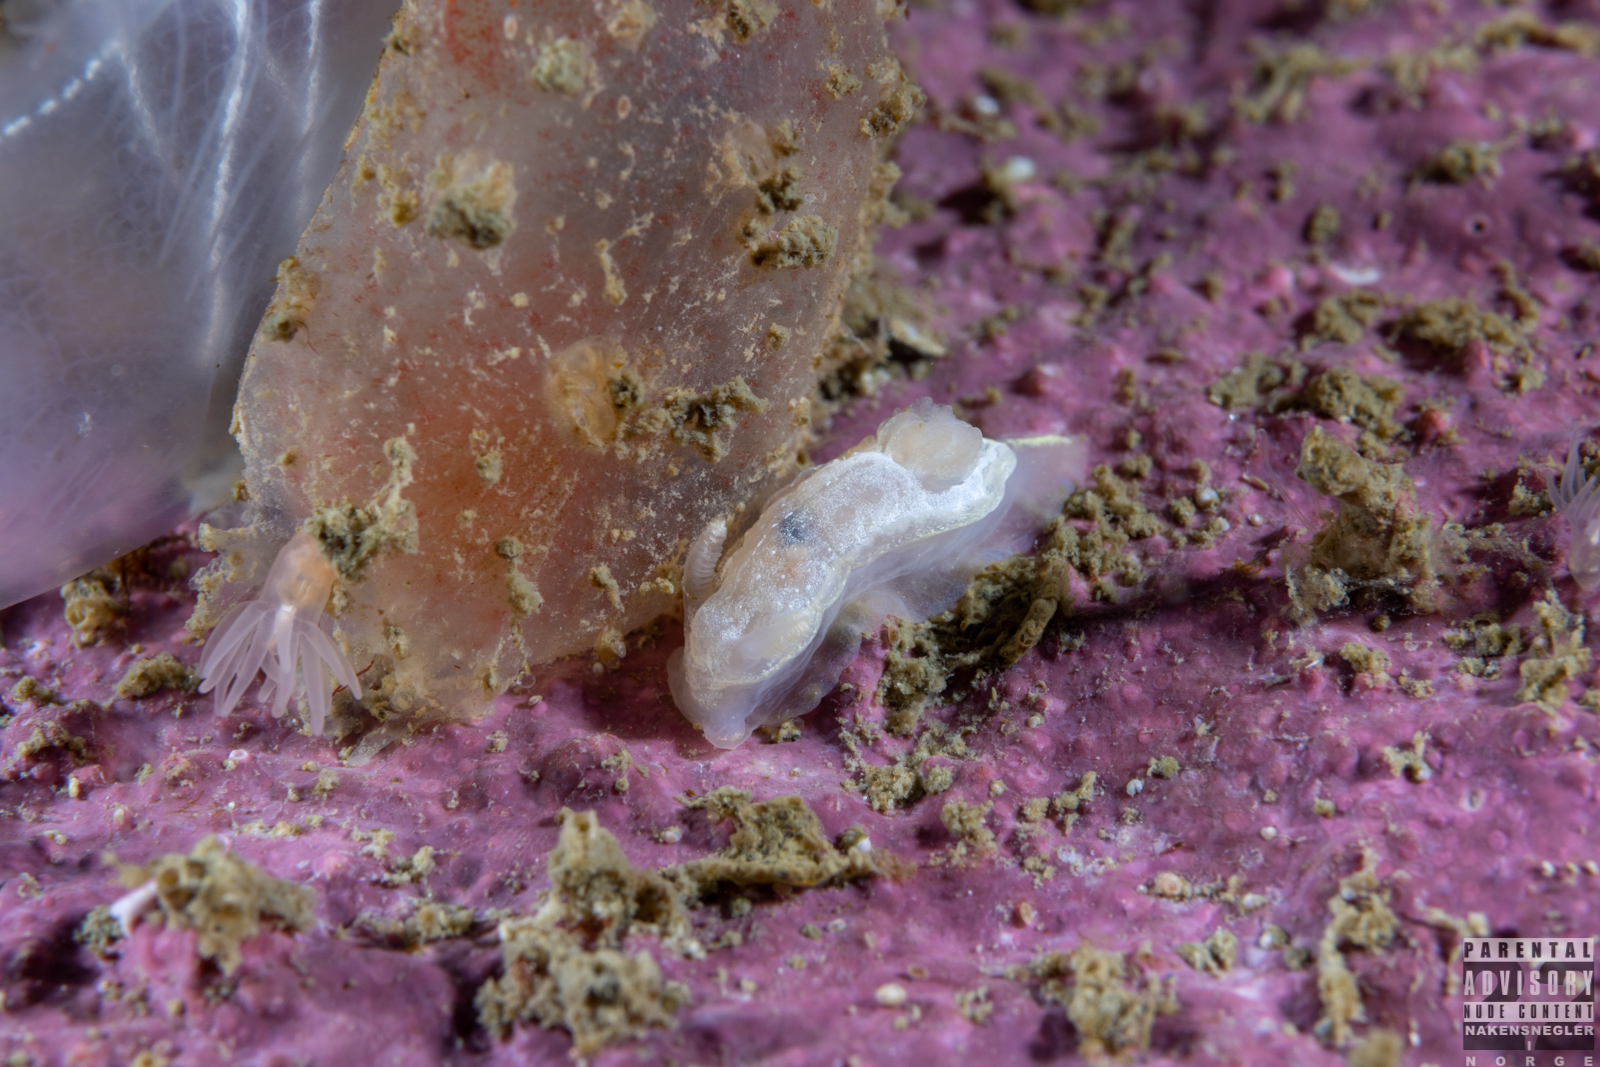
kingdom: Animalia
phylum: Mollusca
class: Gastropoda
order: Nudibranchia
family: Goniodorididae
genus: Okenia
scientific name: Okenia
